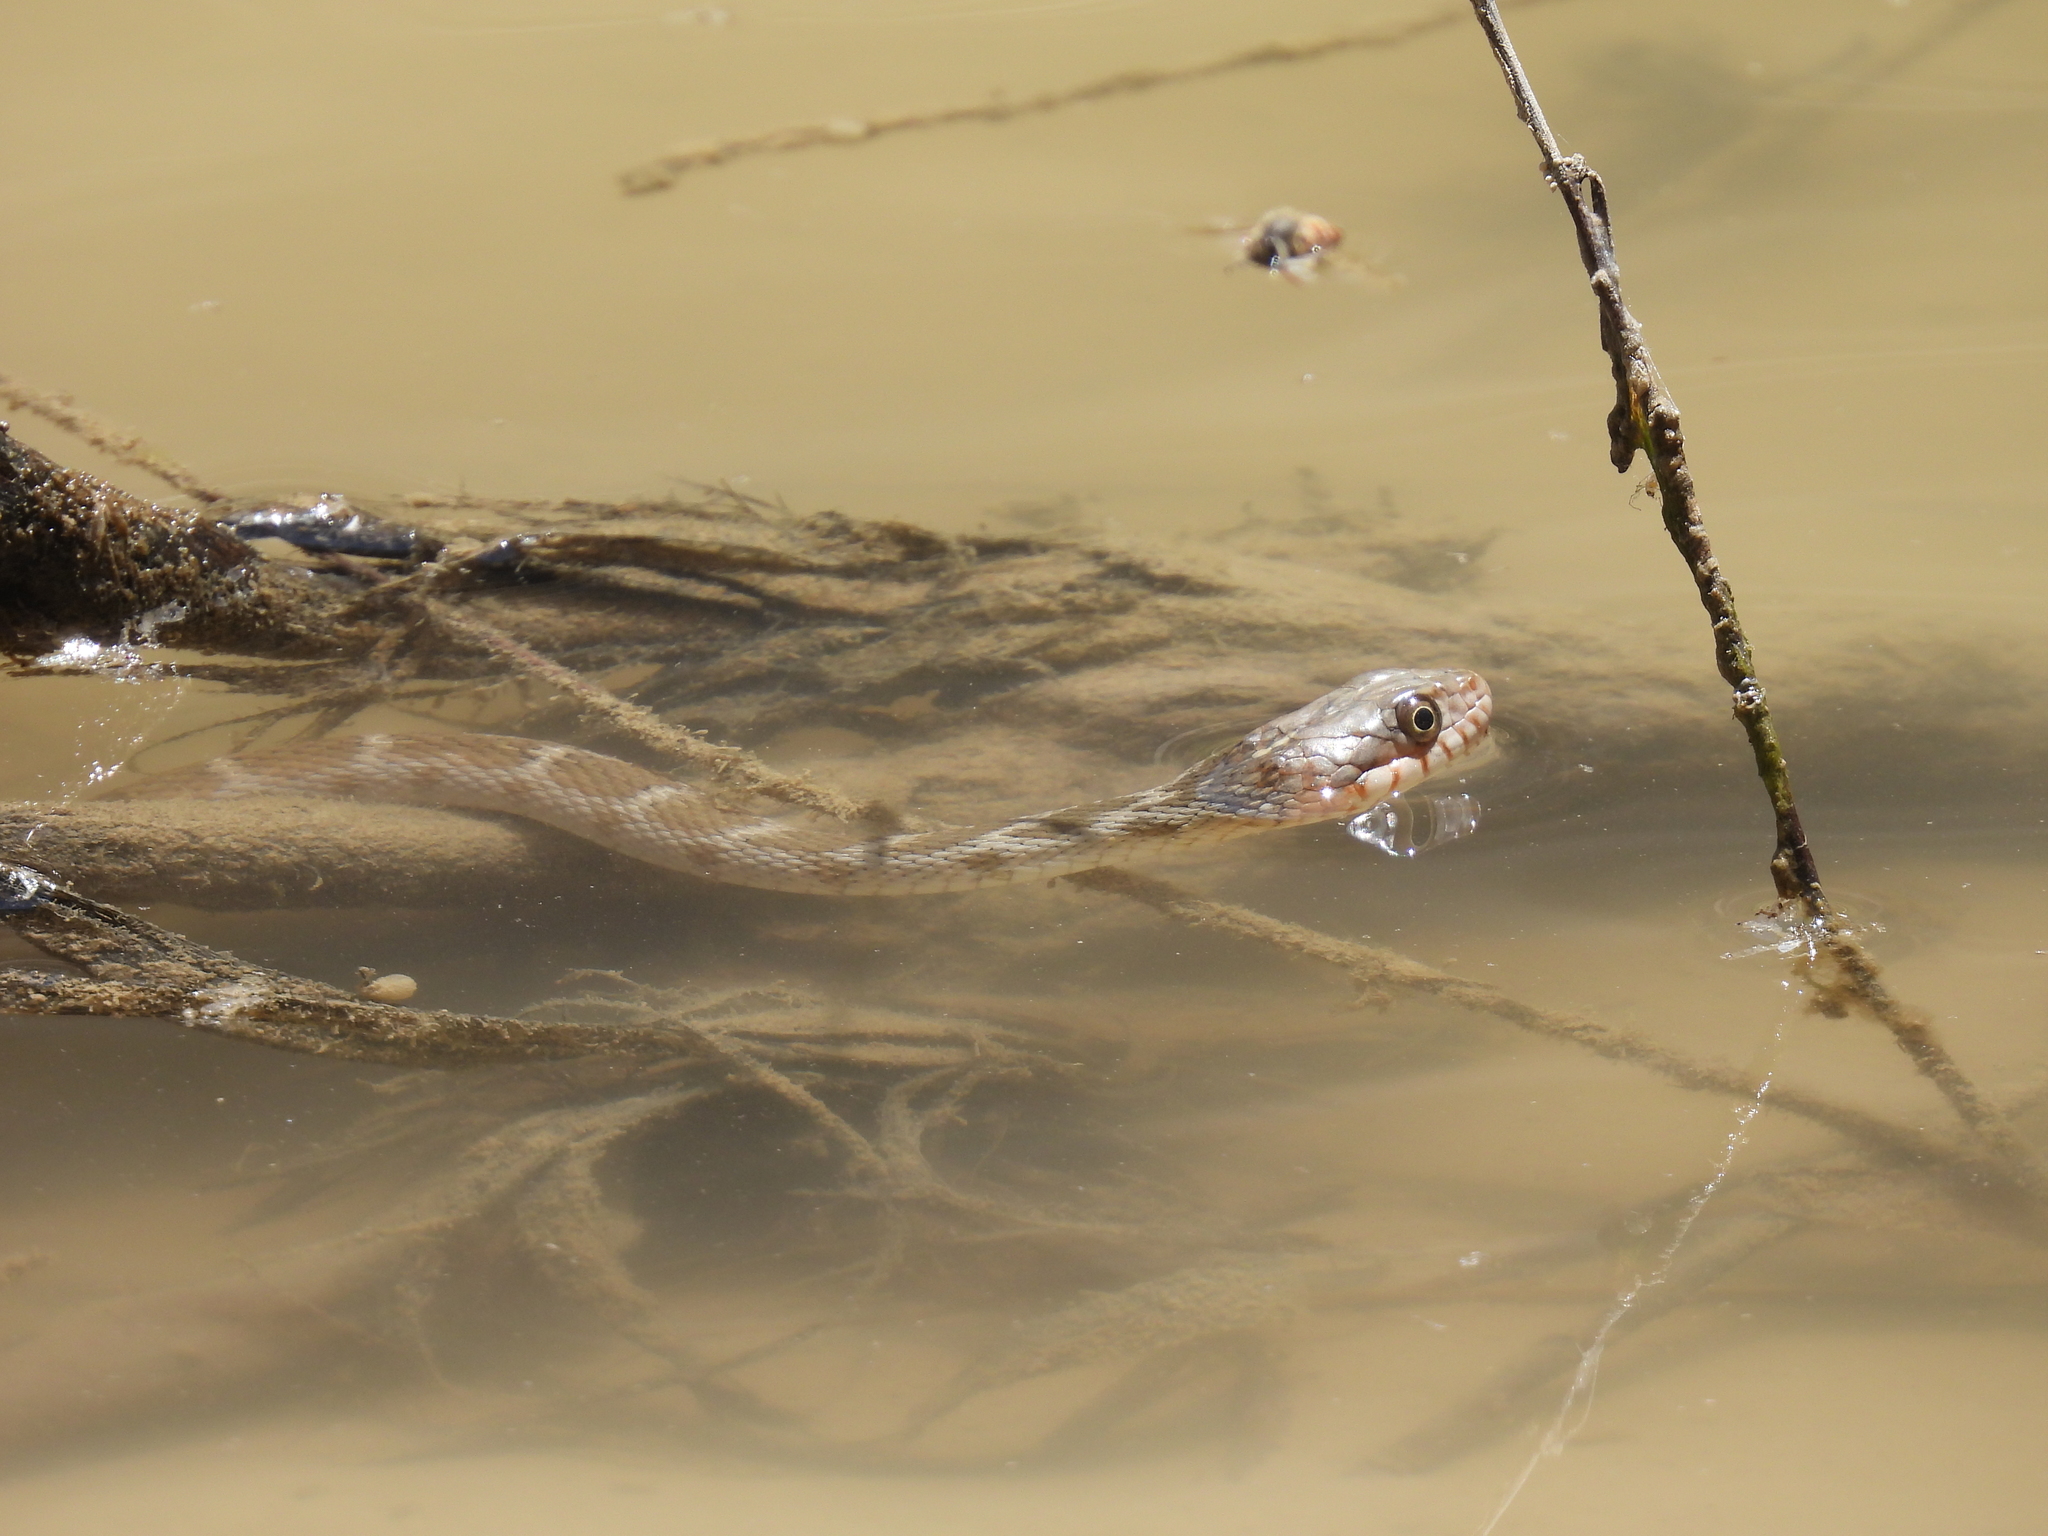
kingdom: Animalia
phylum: Chordata
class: Squamata
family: Colubridae
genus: Nerodia
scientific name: Nerodia erythrogaster
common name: Plainbelly water snake
